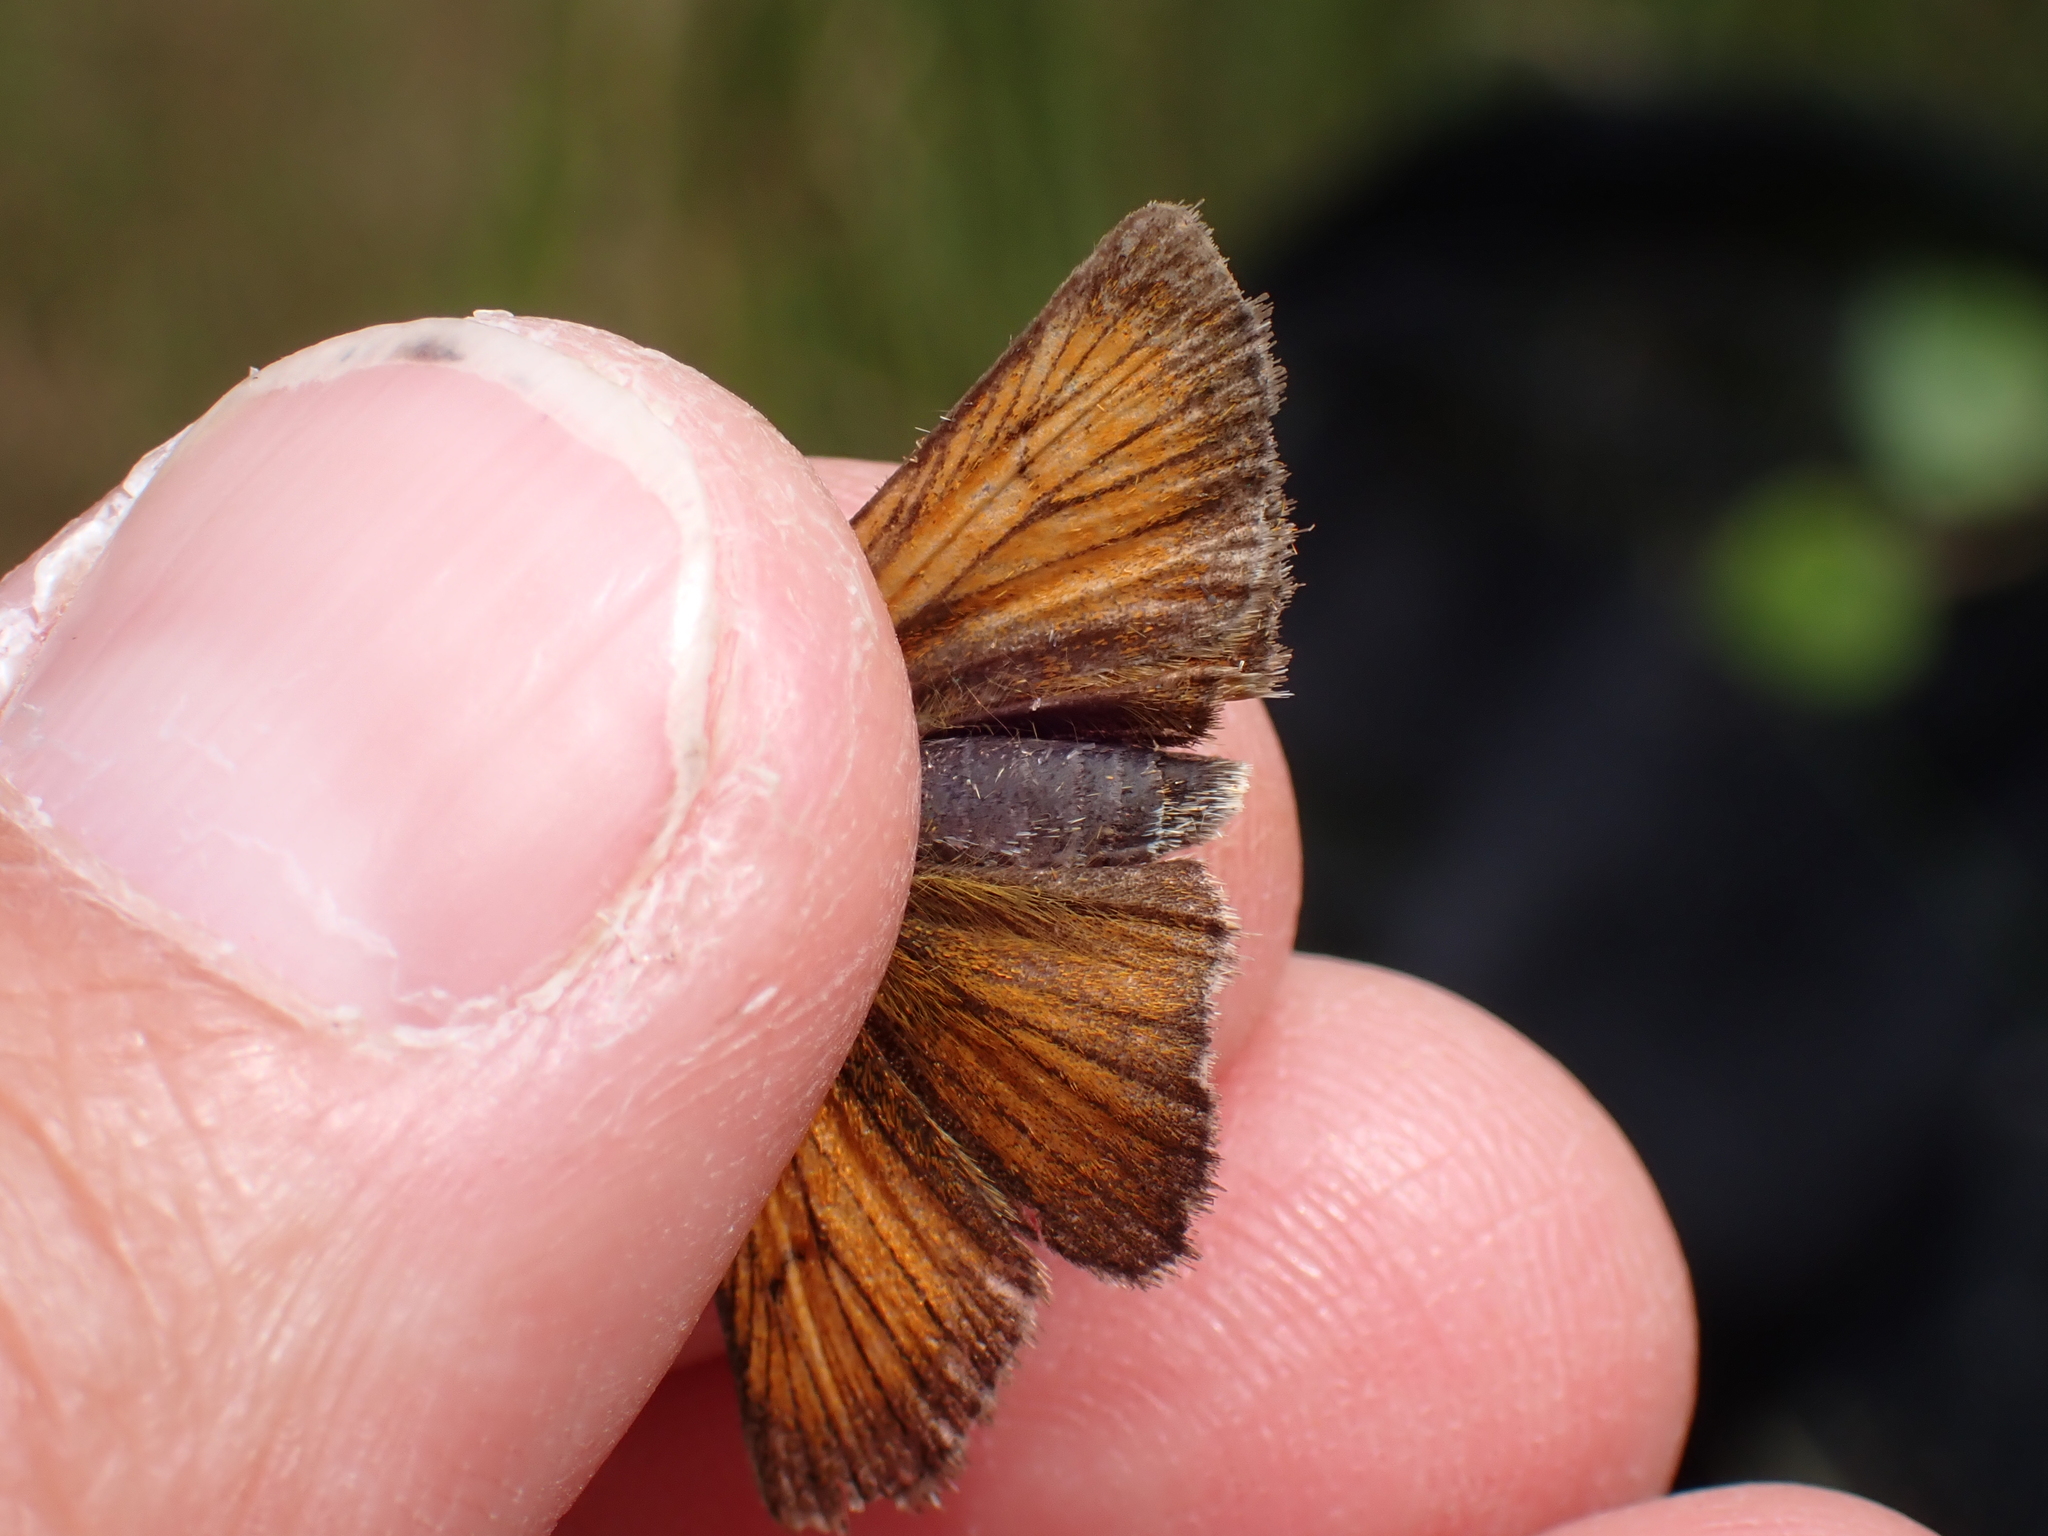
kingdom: Animalia
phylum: Arthropoda
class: Insecta
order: Lepidoptera
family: Hesperiidae
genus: Thymelicus
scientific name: Thymelicus sylvestris
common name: Small skipper
